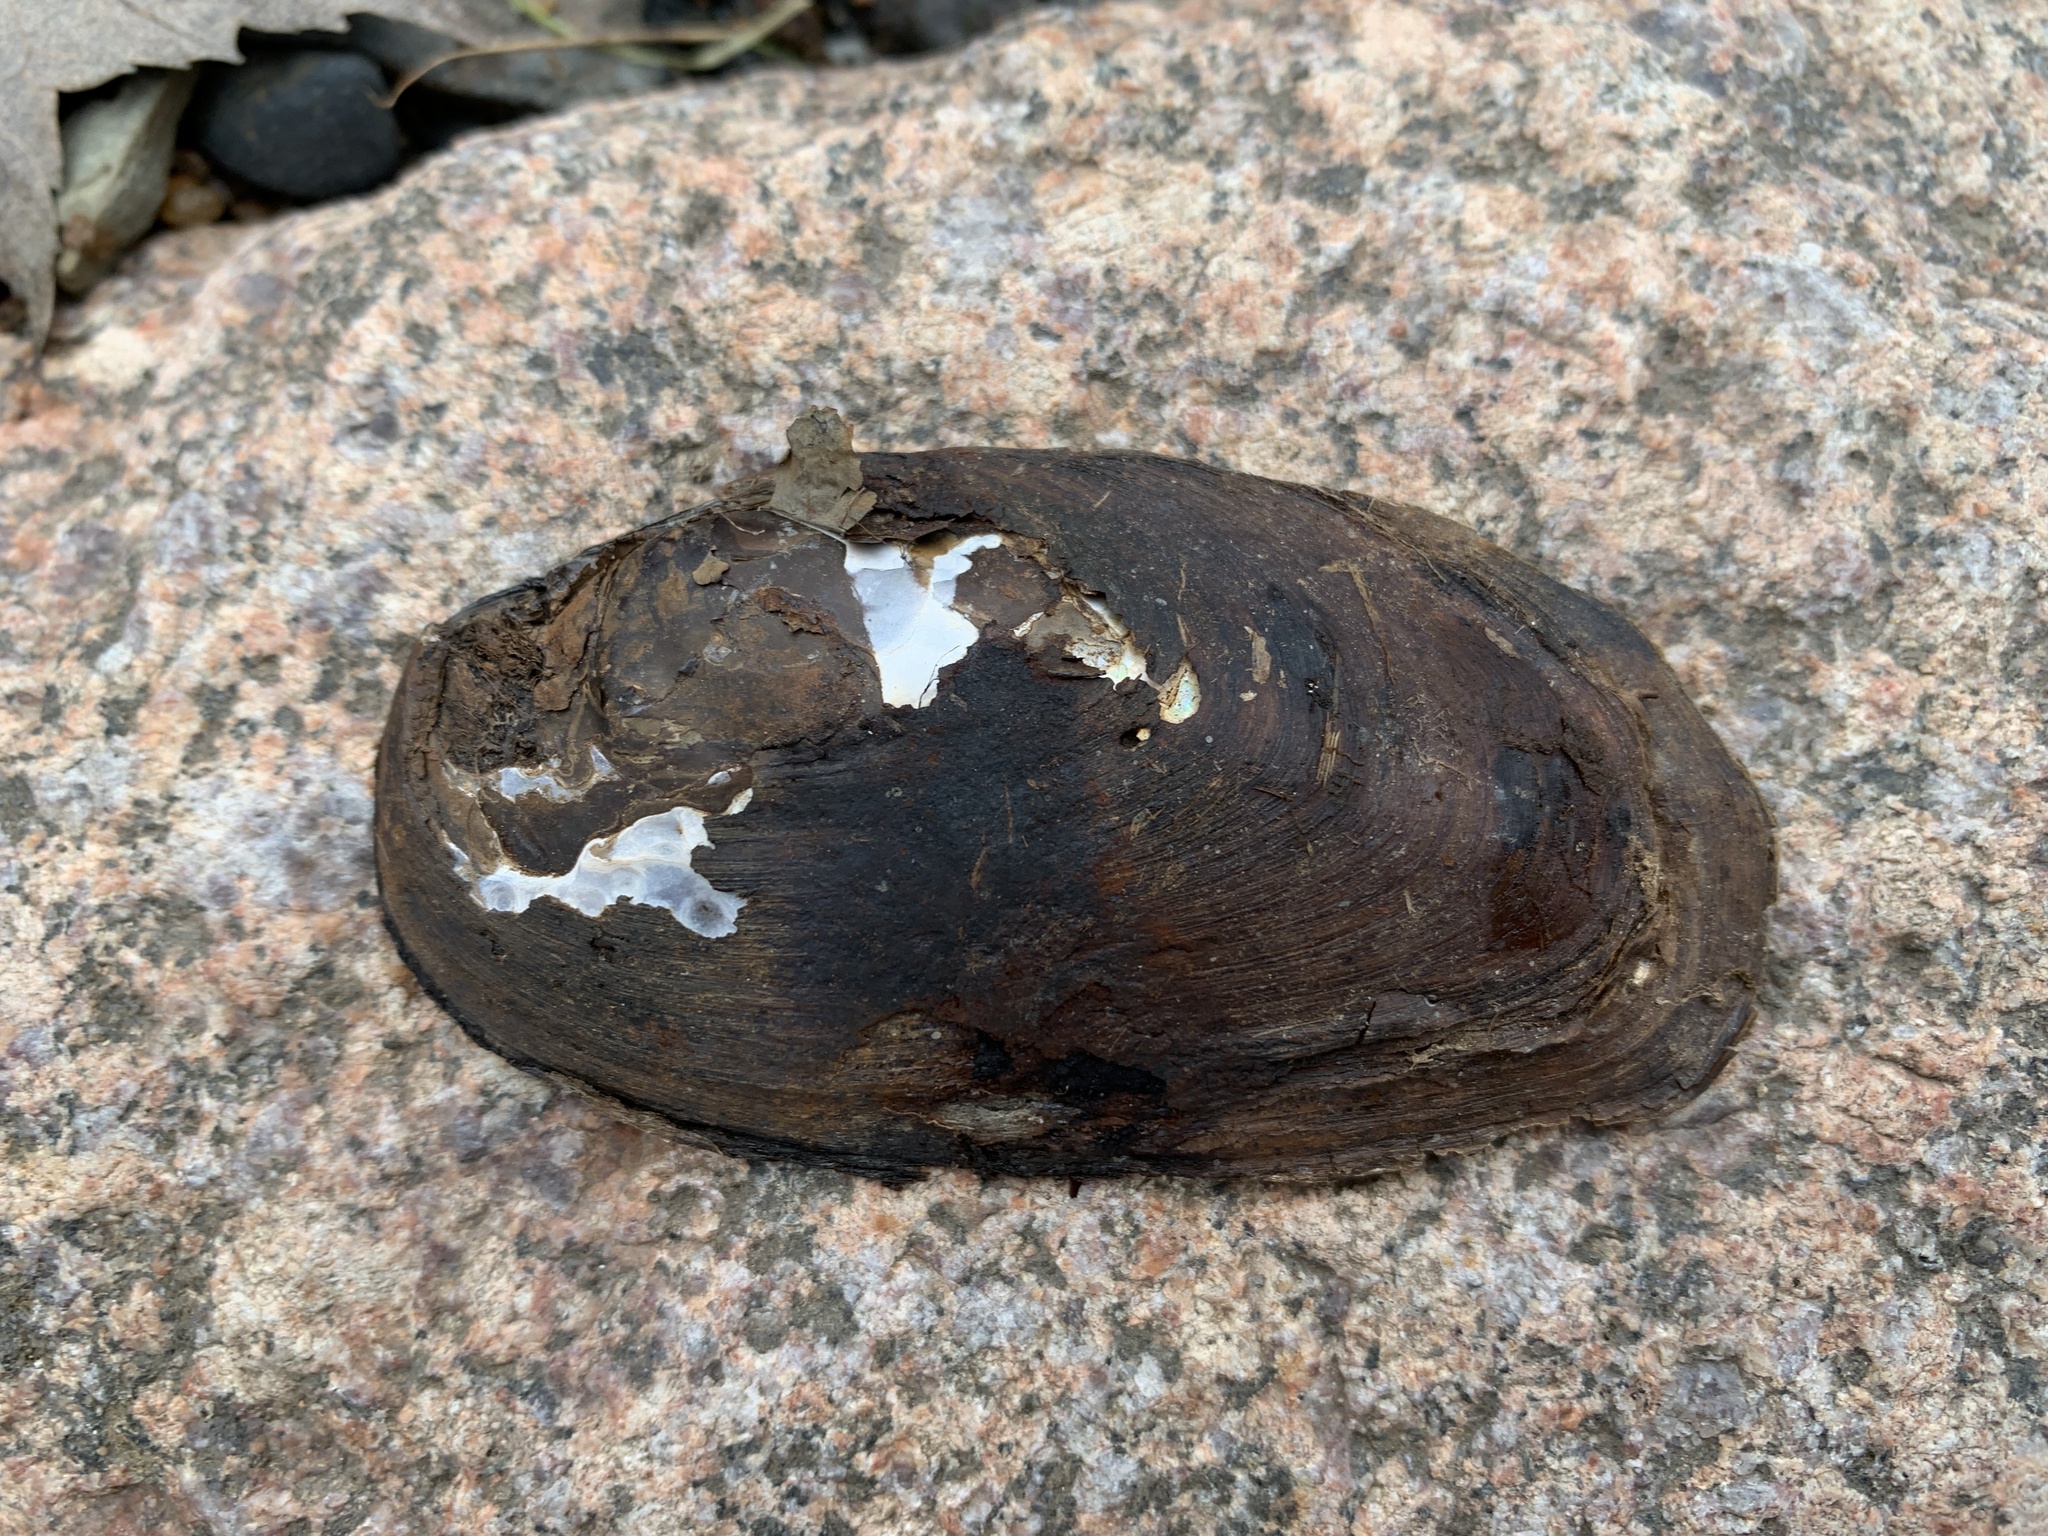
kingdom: Animalia
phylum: Mollusca
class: Bivalvia
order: Unionida
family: Unionidae
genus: Elliptio
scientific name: Elliptio complanata
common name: Eastern elliptio
